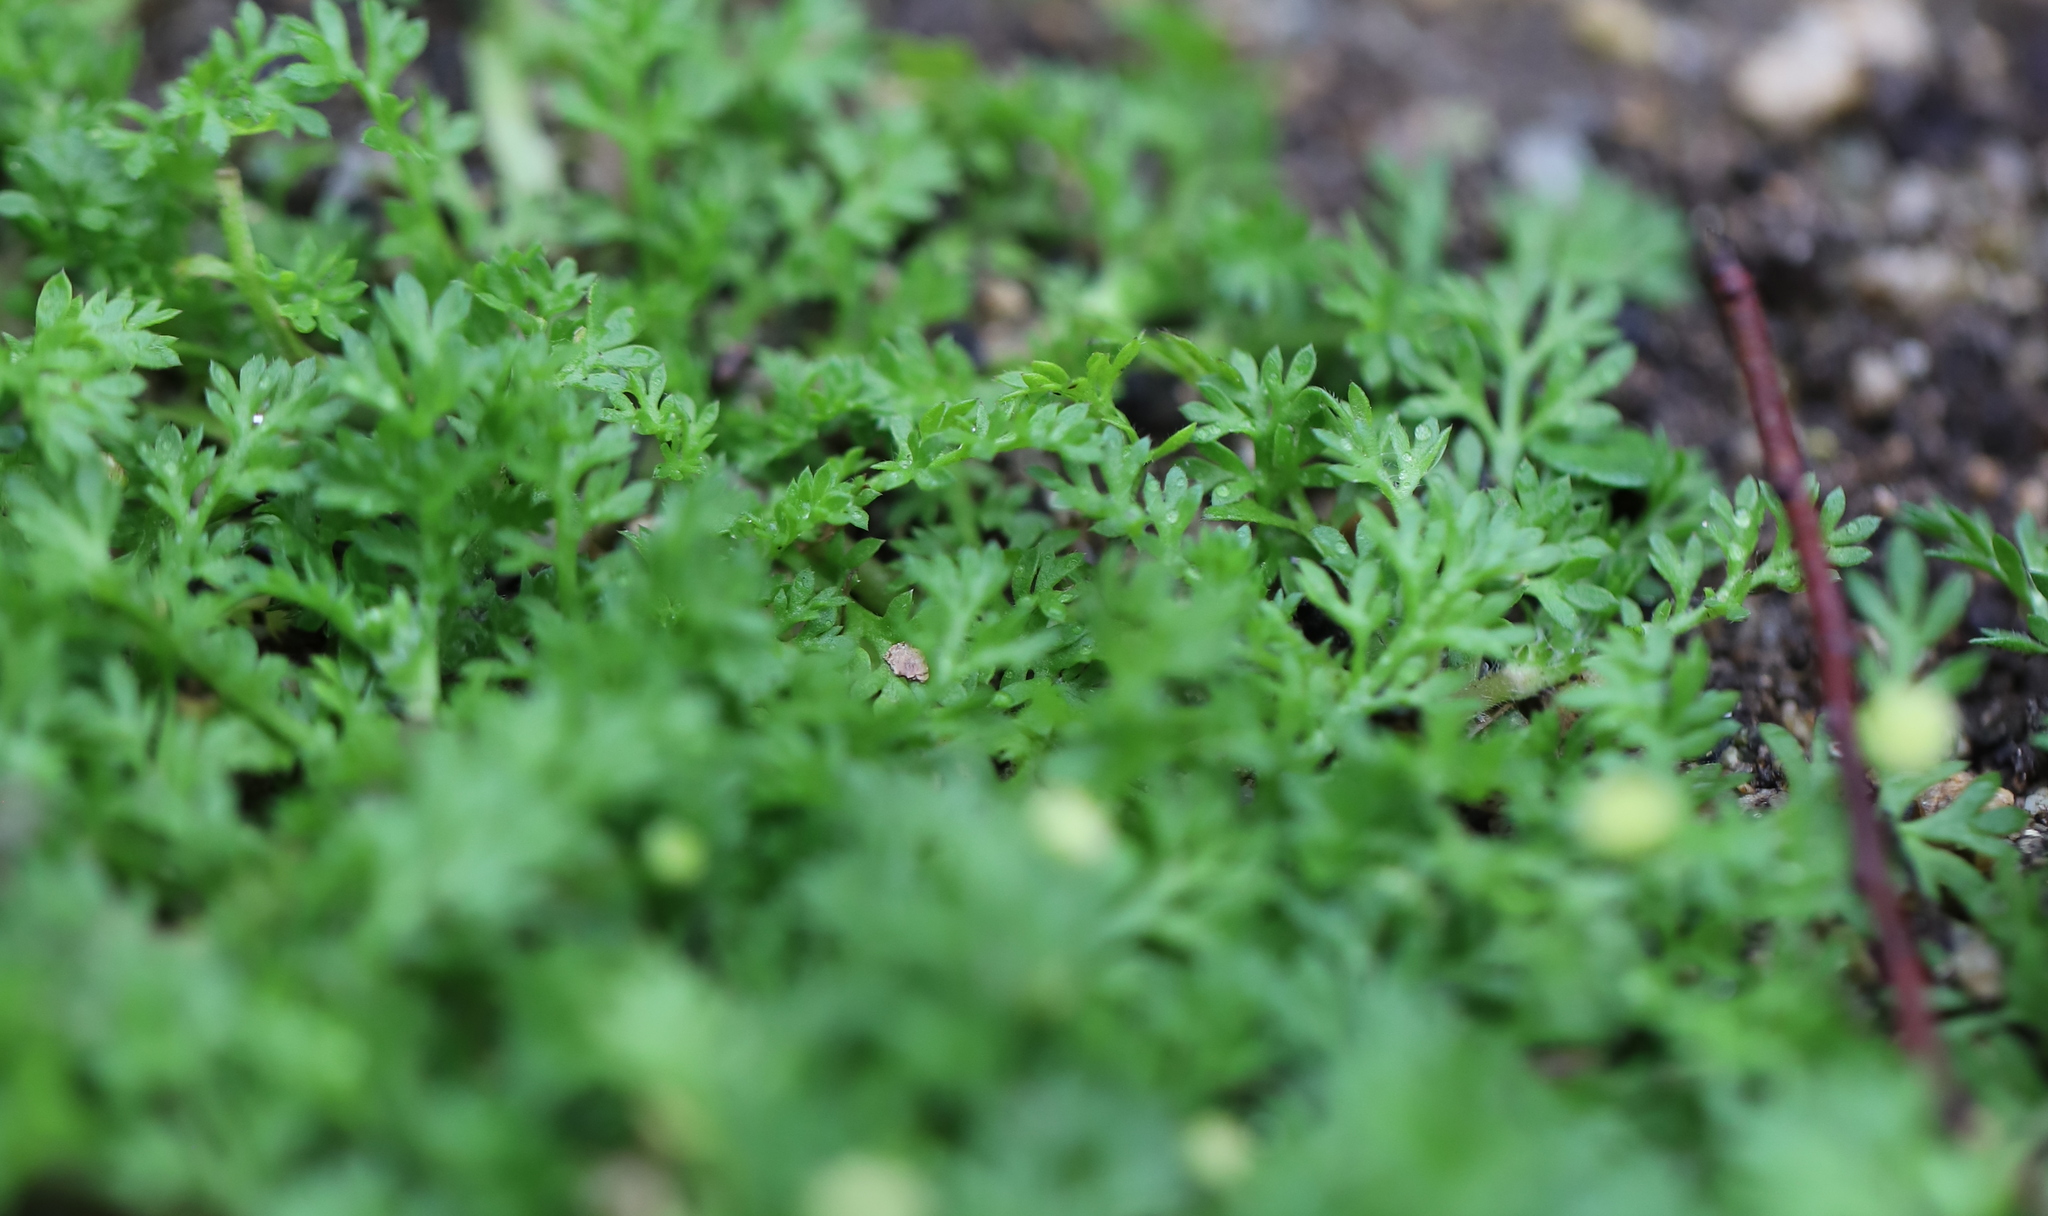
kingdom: Plantae
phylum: Tracheophyta
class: Magnoliopsida
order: Asterales
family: Asteraceae
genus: Cotula
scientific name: Cotula australis
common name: Australian waterbuttons
